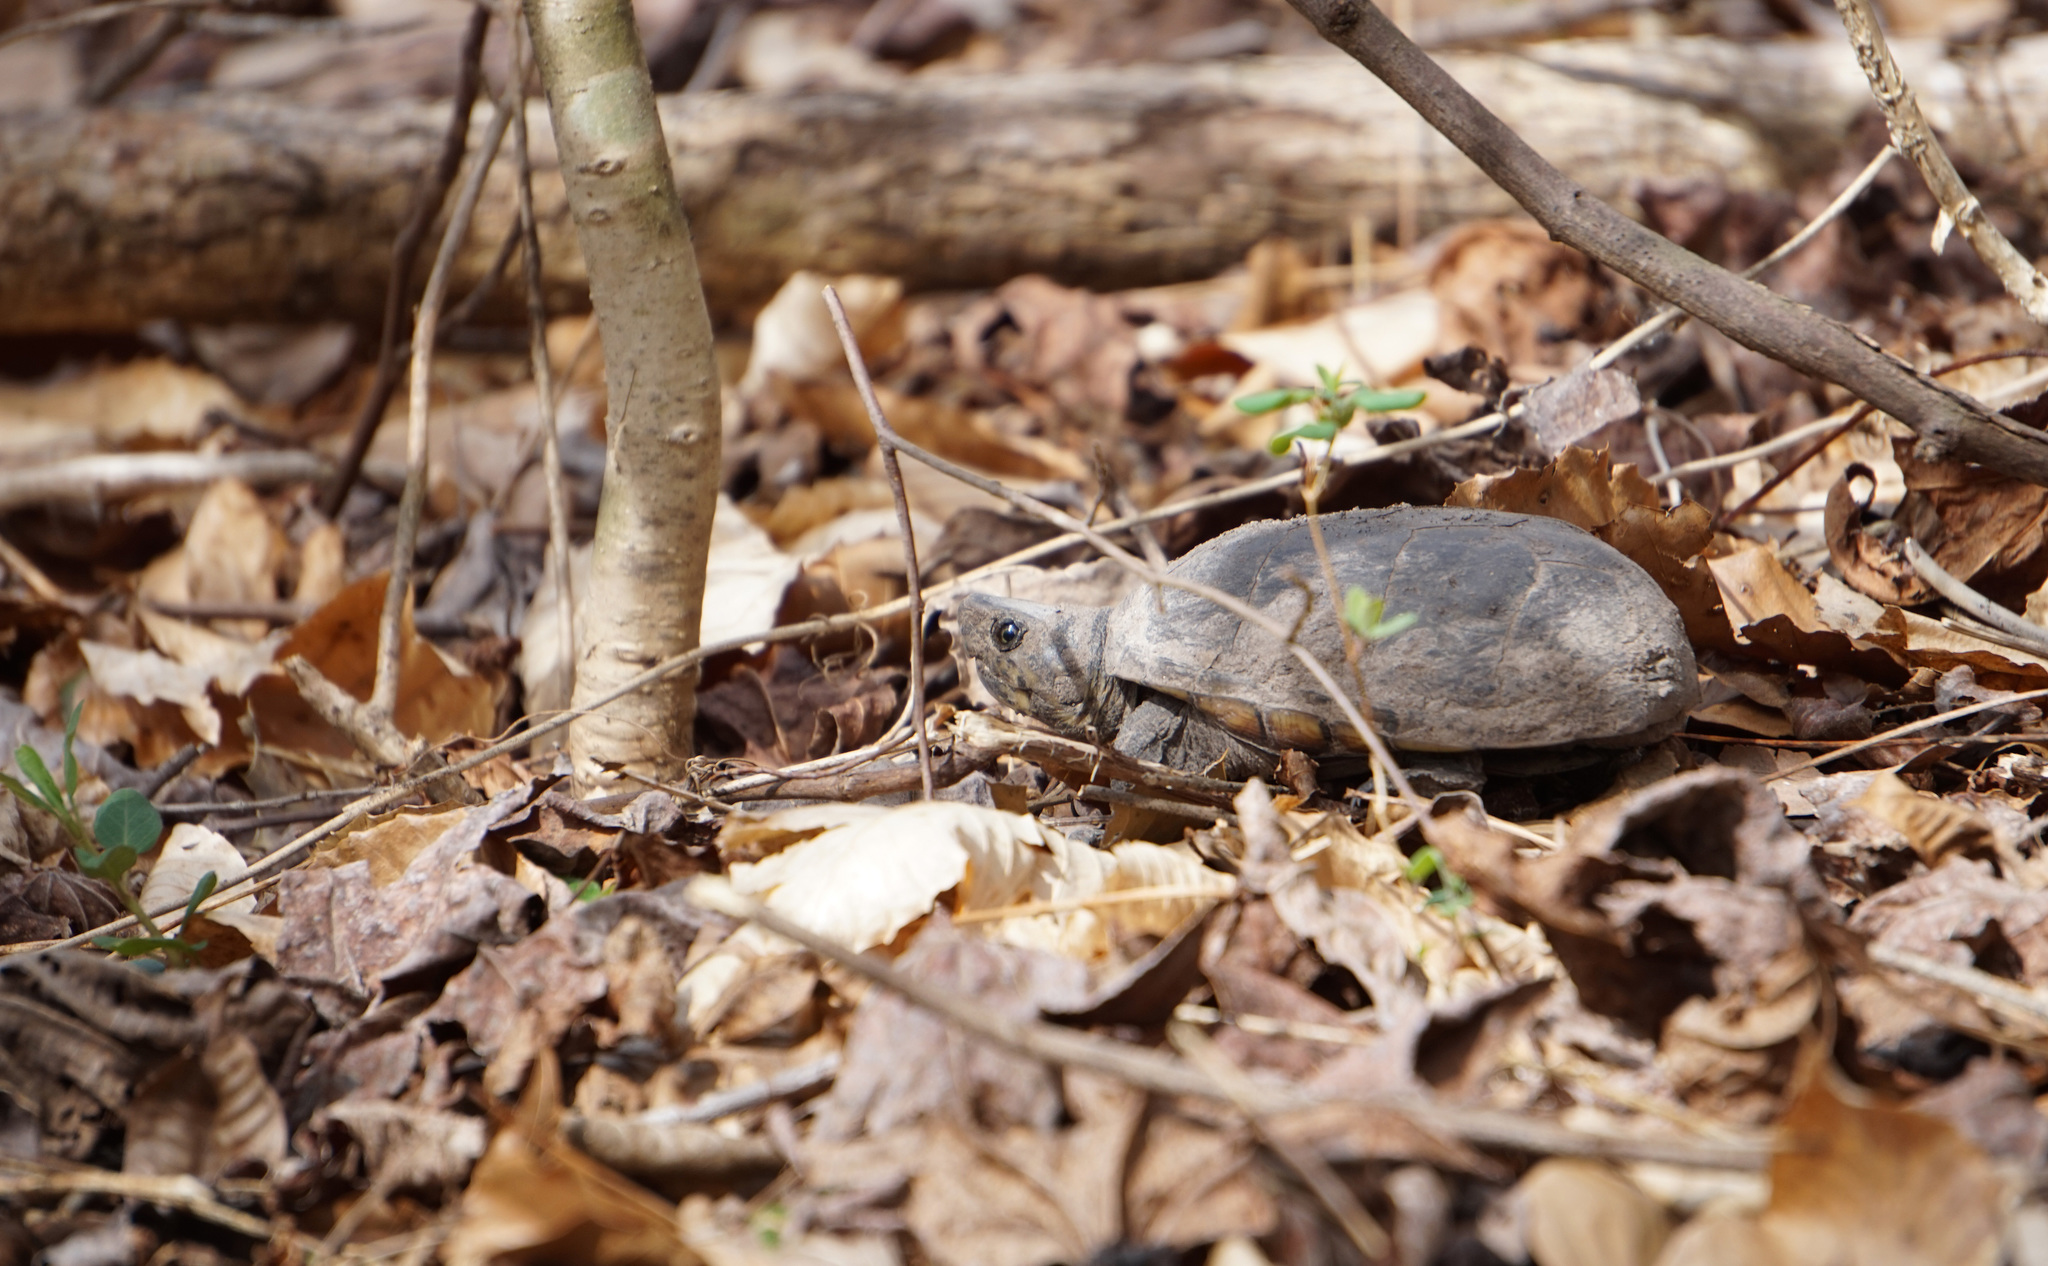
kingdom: Animalia
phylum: Chordata
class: Testudines
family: Kinosternidae
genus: Kinosternon
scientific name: Kinosternon subrubrum
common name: Eastern mud turtle
